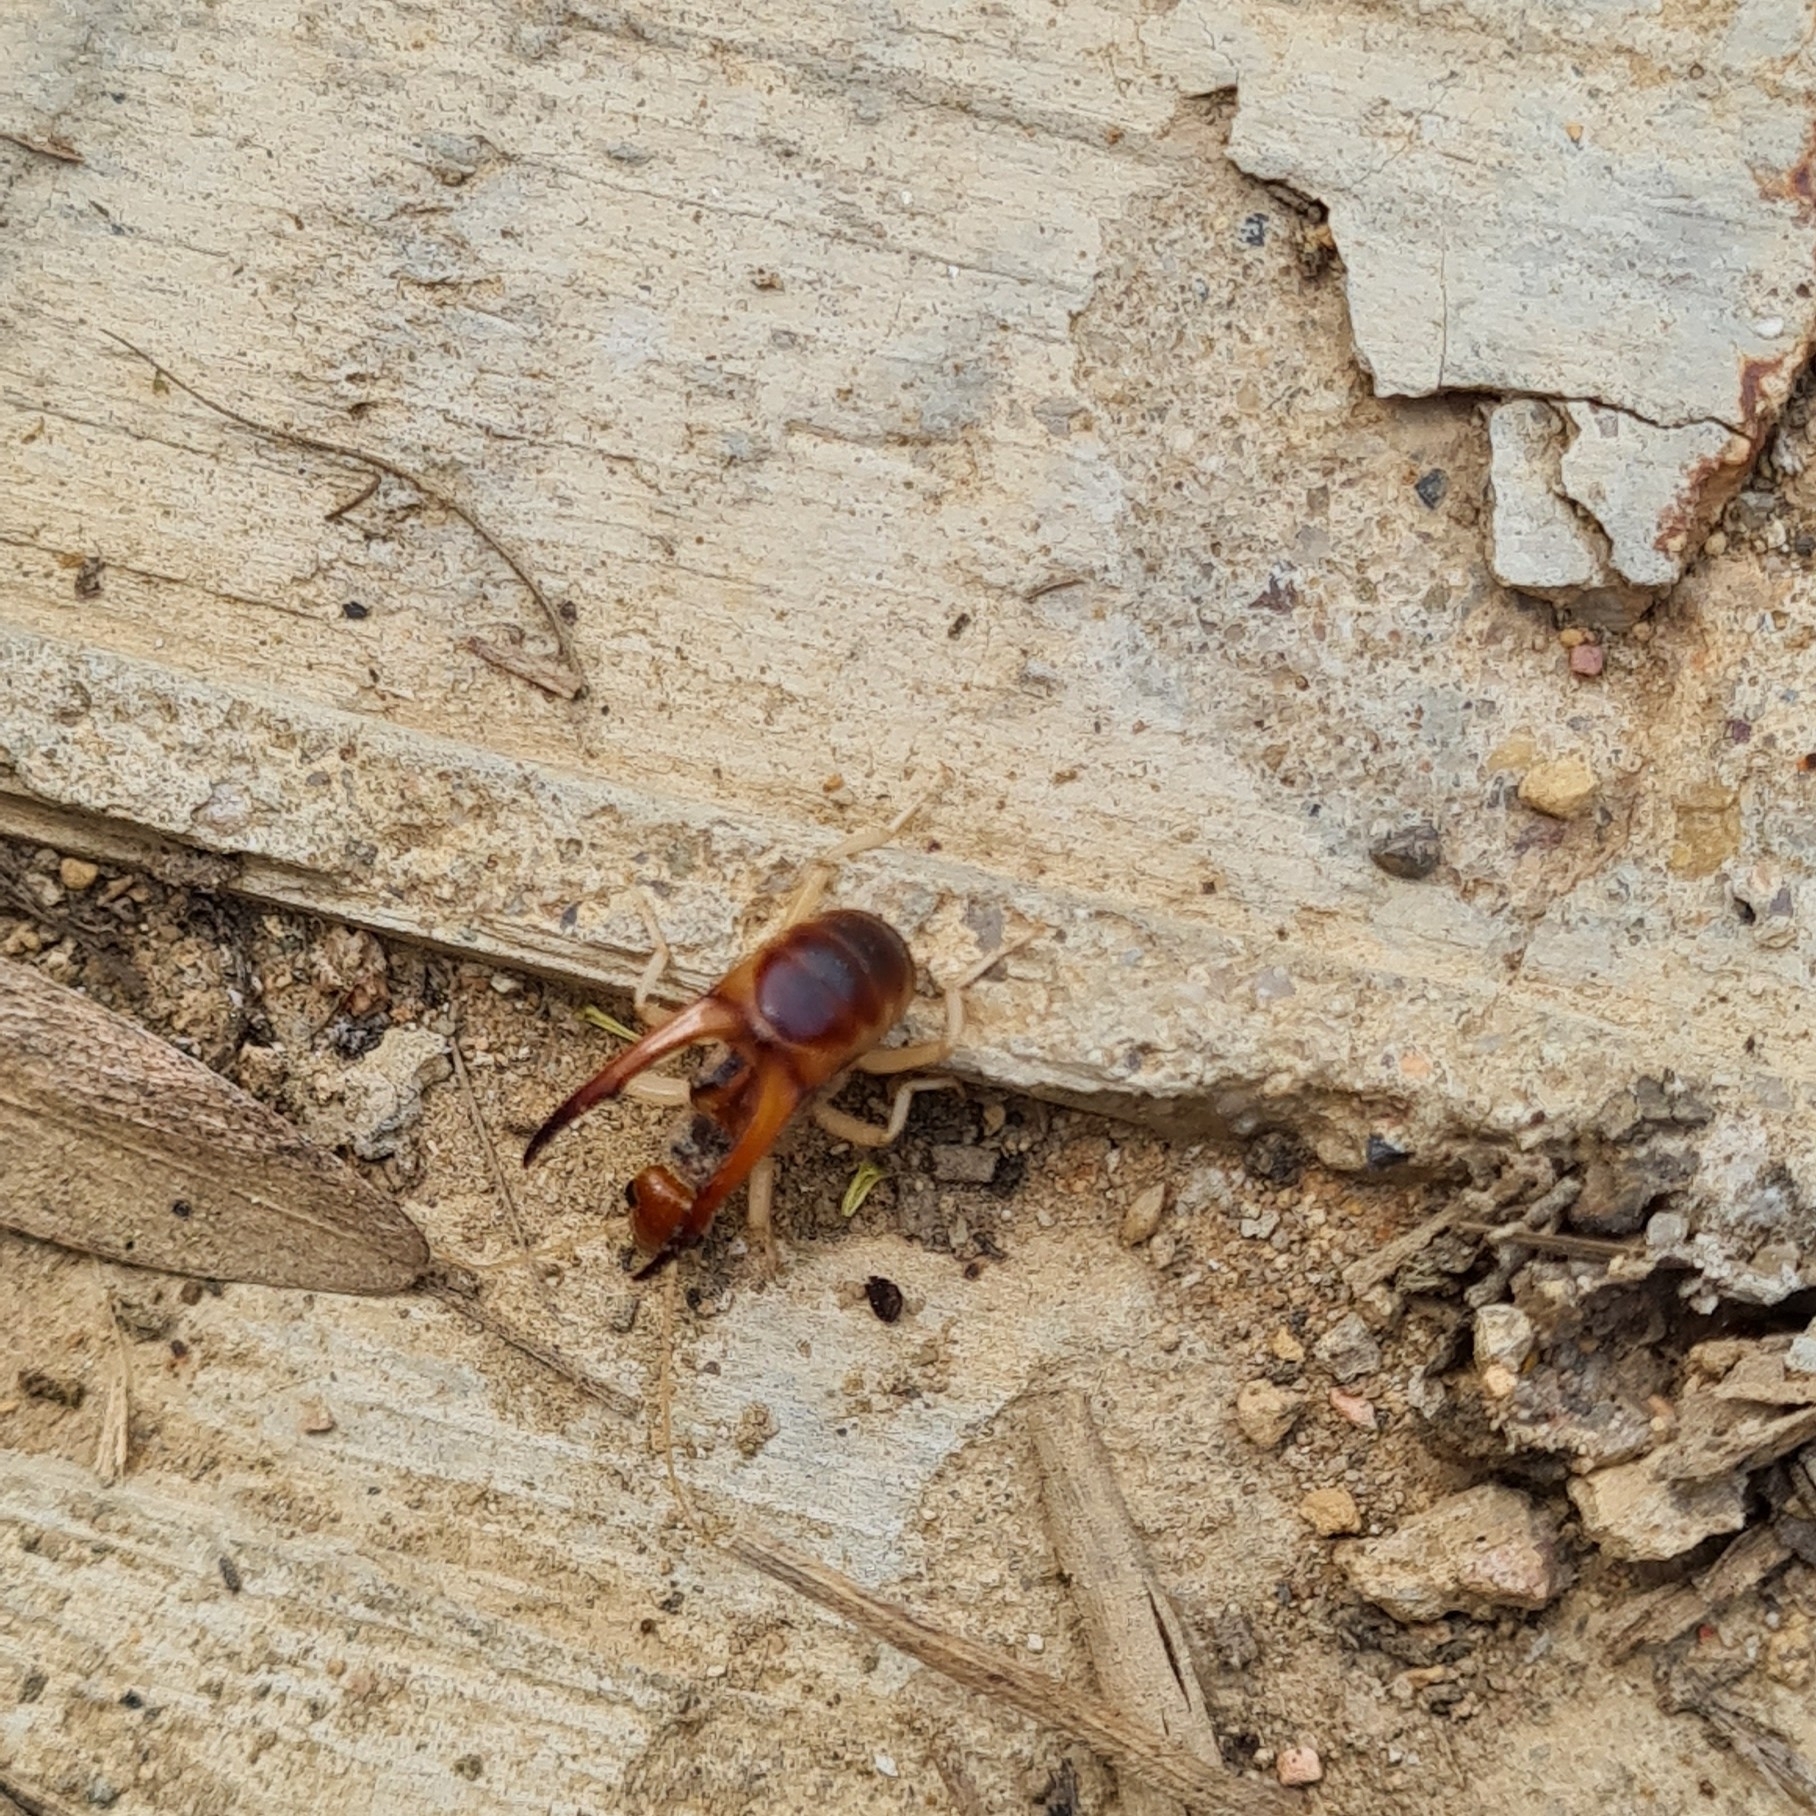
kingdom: Animalia
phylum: Arthropoda
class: Insecta
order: Dermaptera
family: Labiduridae
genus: Labidura
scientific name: Labidura riparia
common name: Striped earwig
